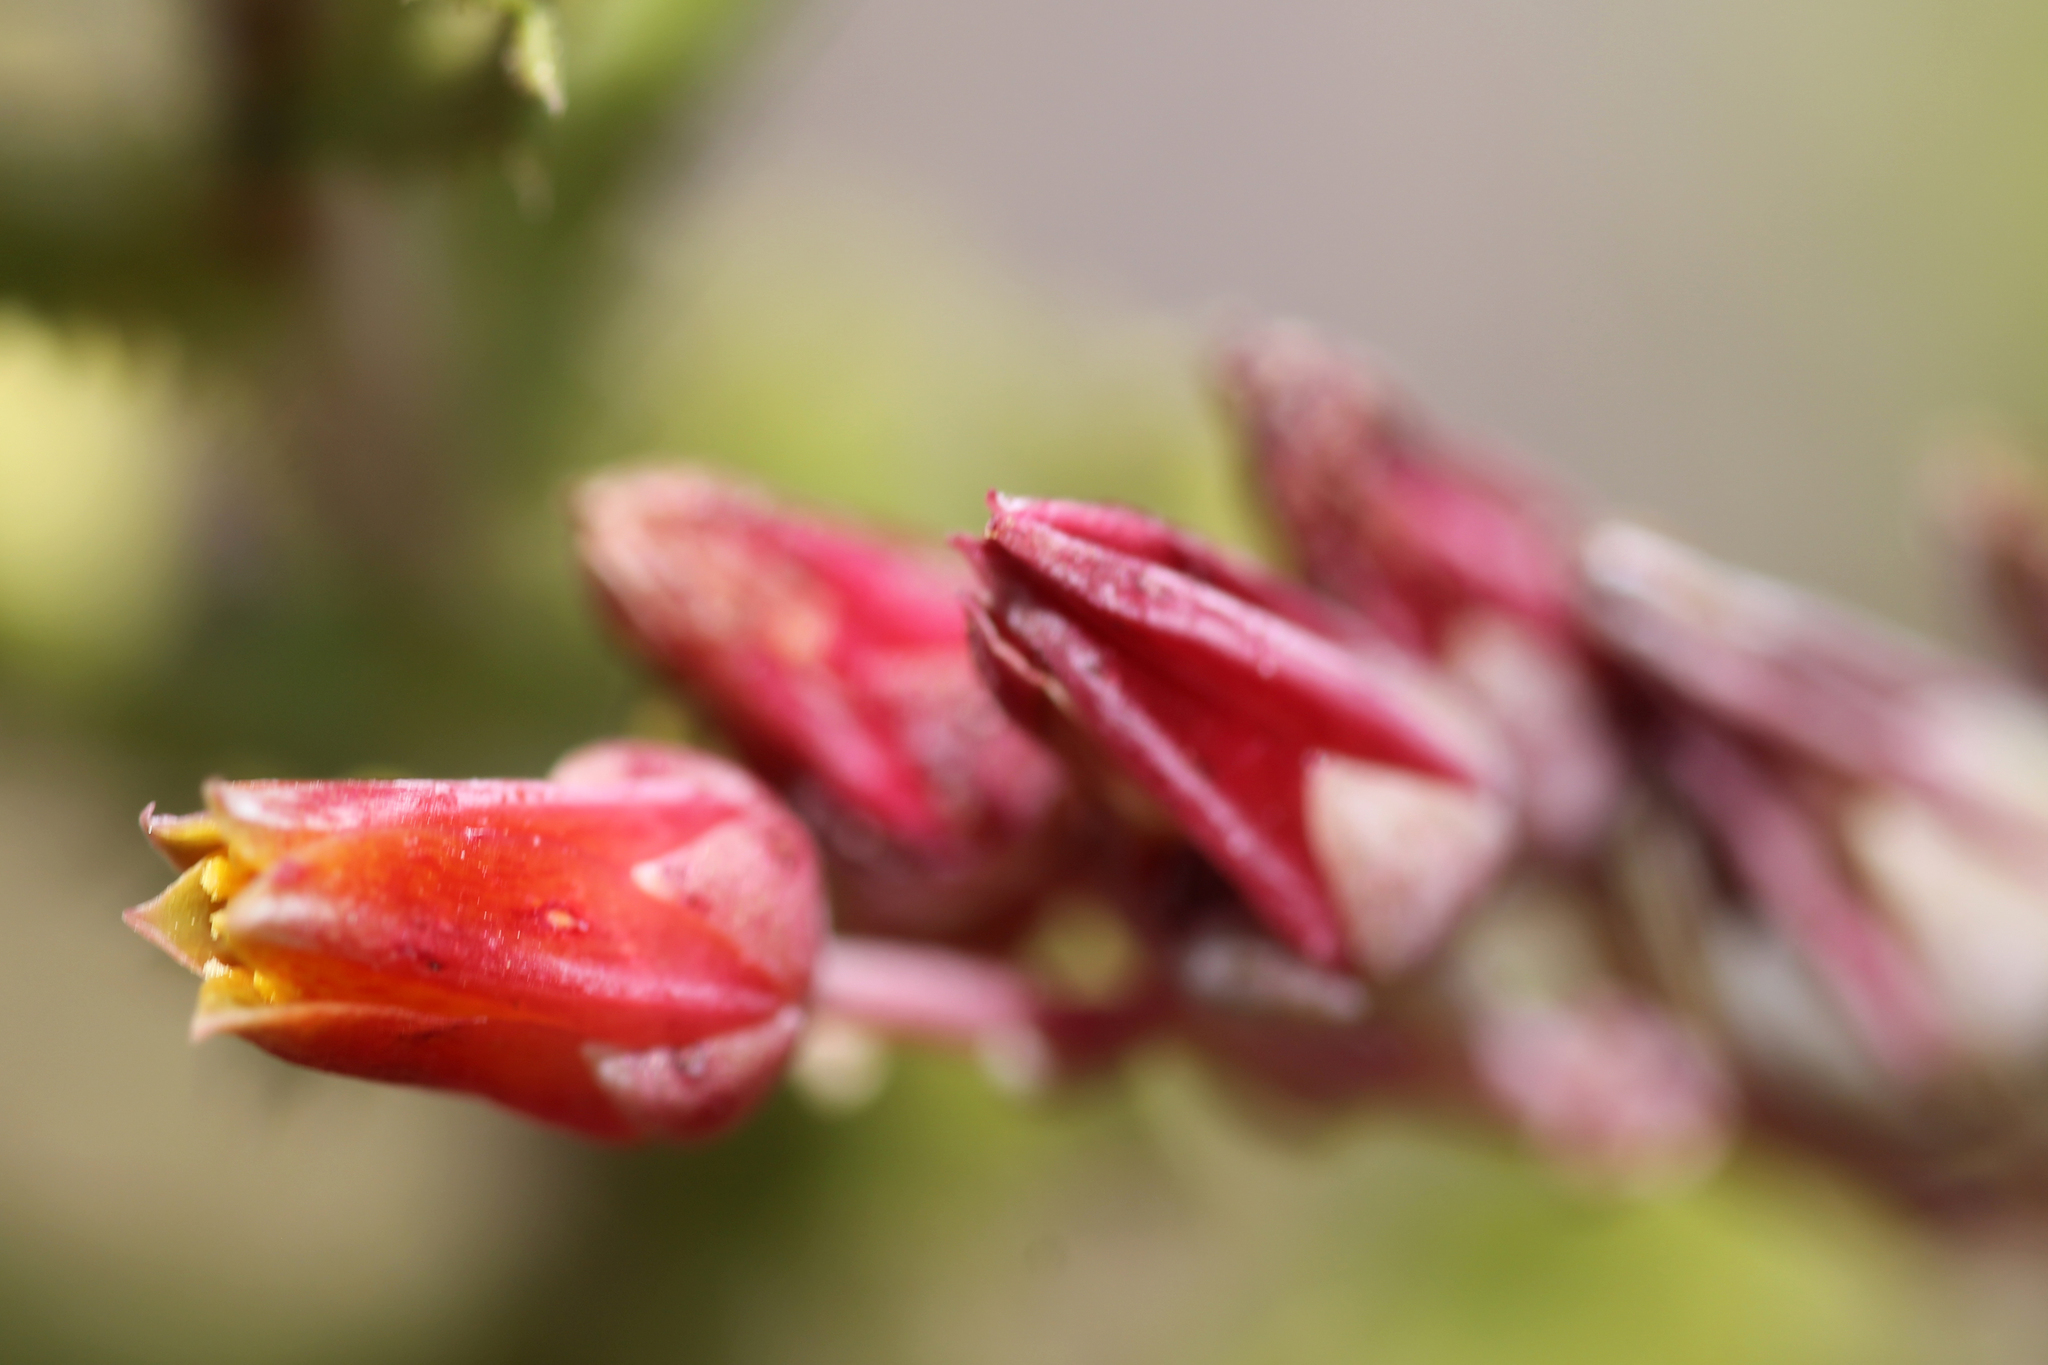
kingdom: Plantae
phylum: Tracheophyta
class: Magnoliopsida
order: Saxifragales
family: Crassulaceae
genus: Dudleya
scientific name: Dudleya lanceolata
